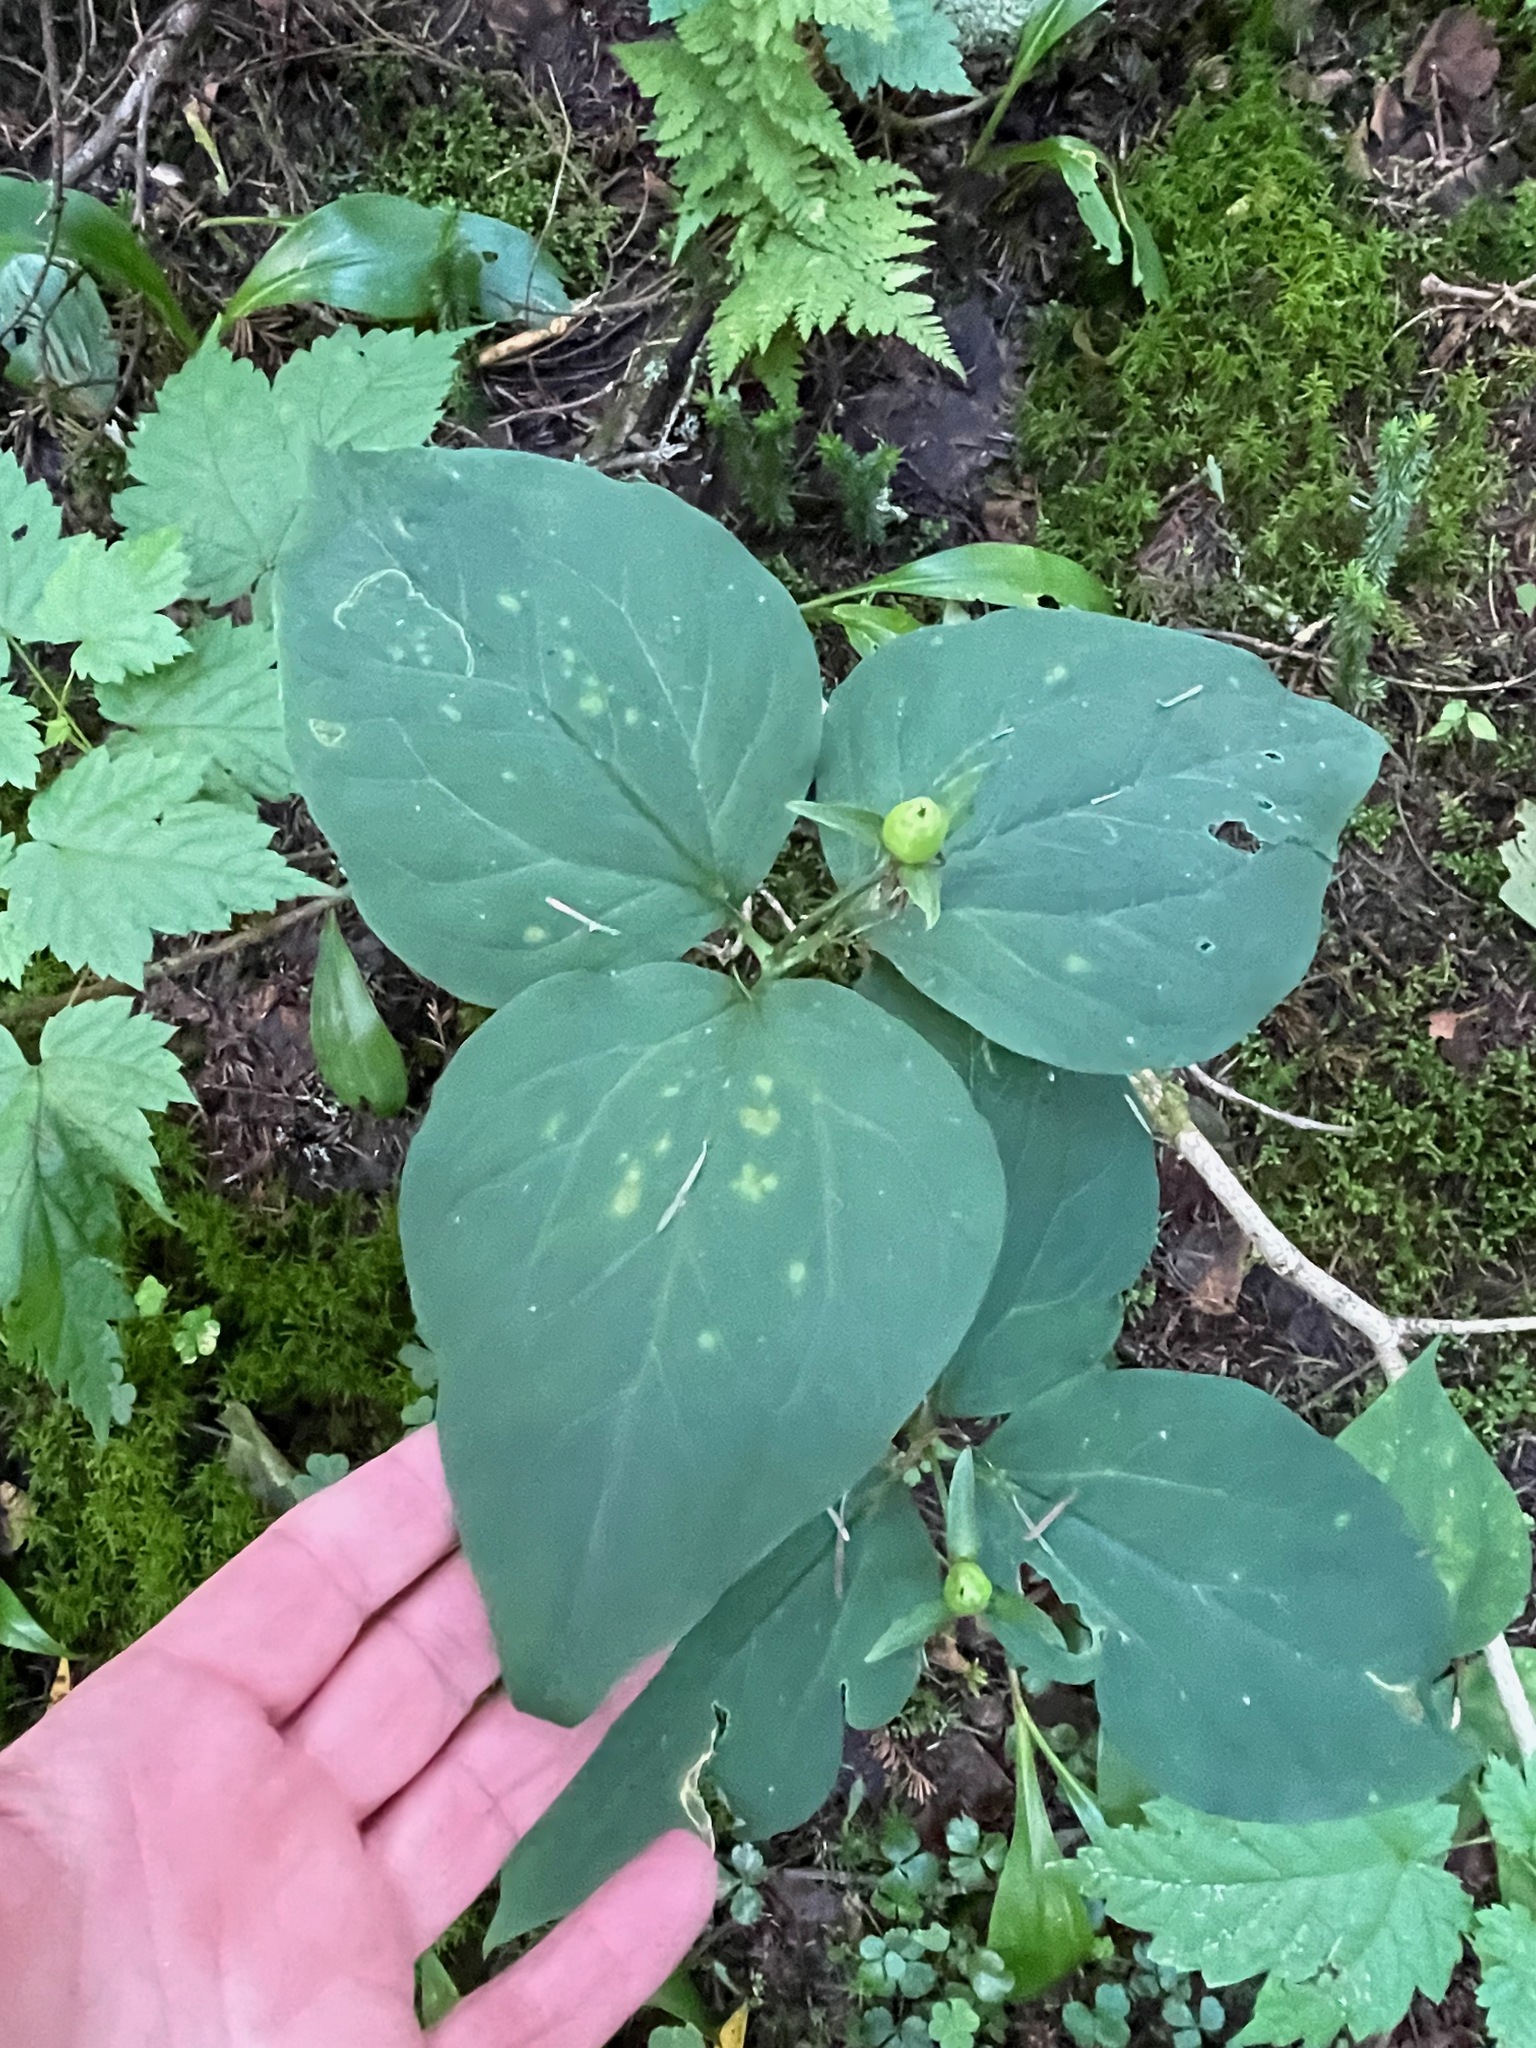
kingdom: Plantae
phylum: Tracheophyta
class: Liliopsida
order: Liliales
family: Melanthiaceae
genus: Trillium
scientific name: Trillium undulatum
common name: Paint trillium
